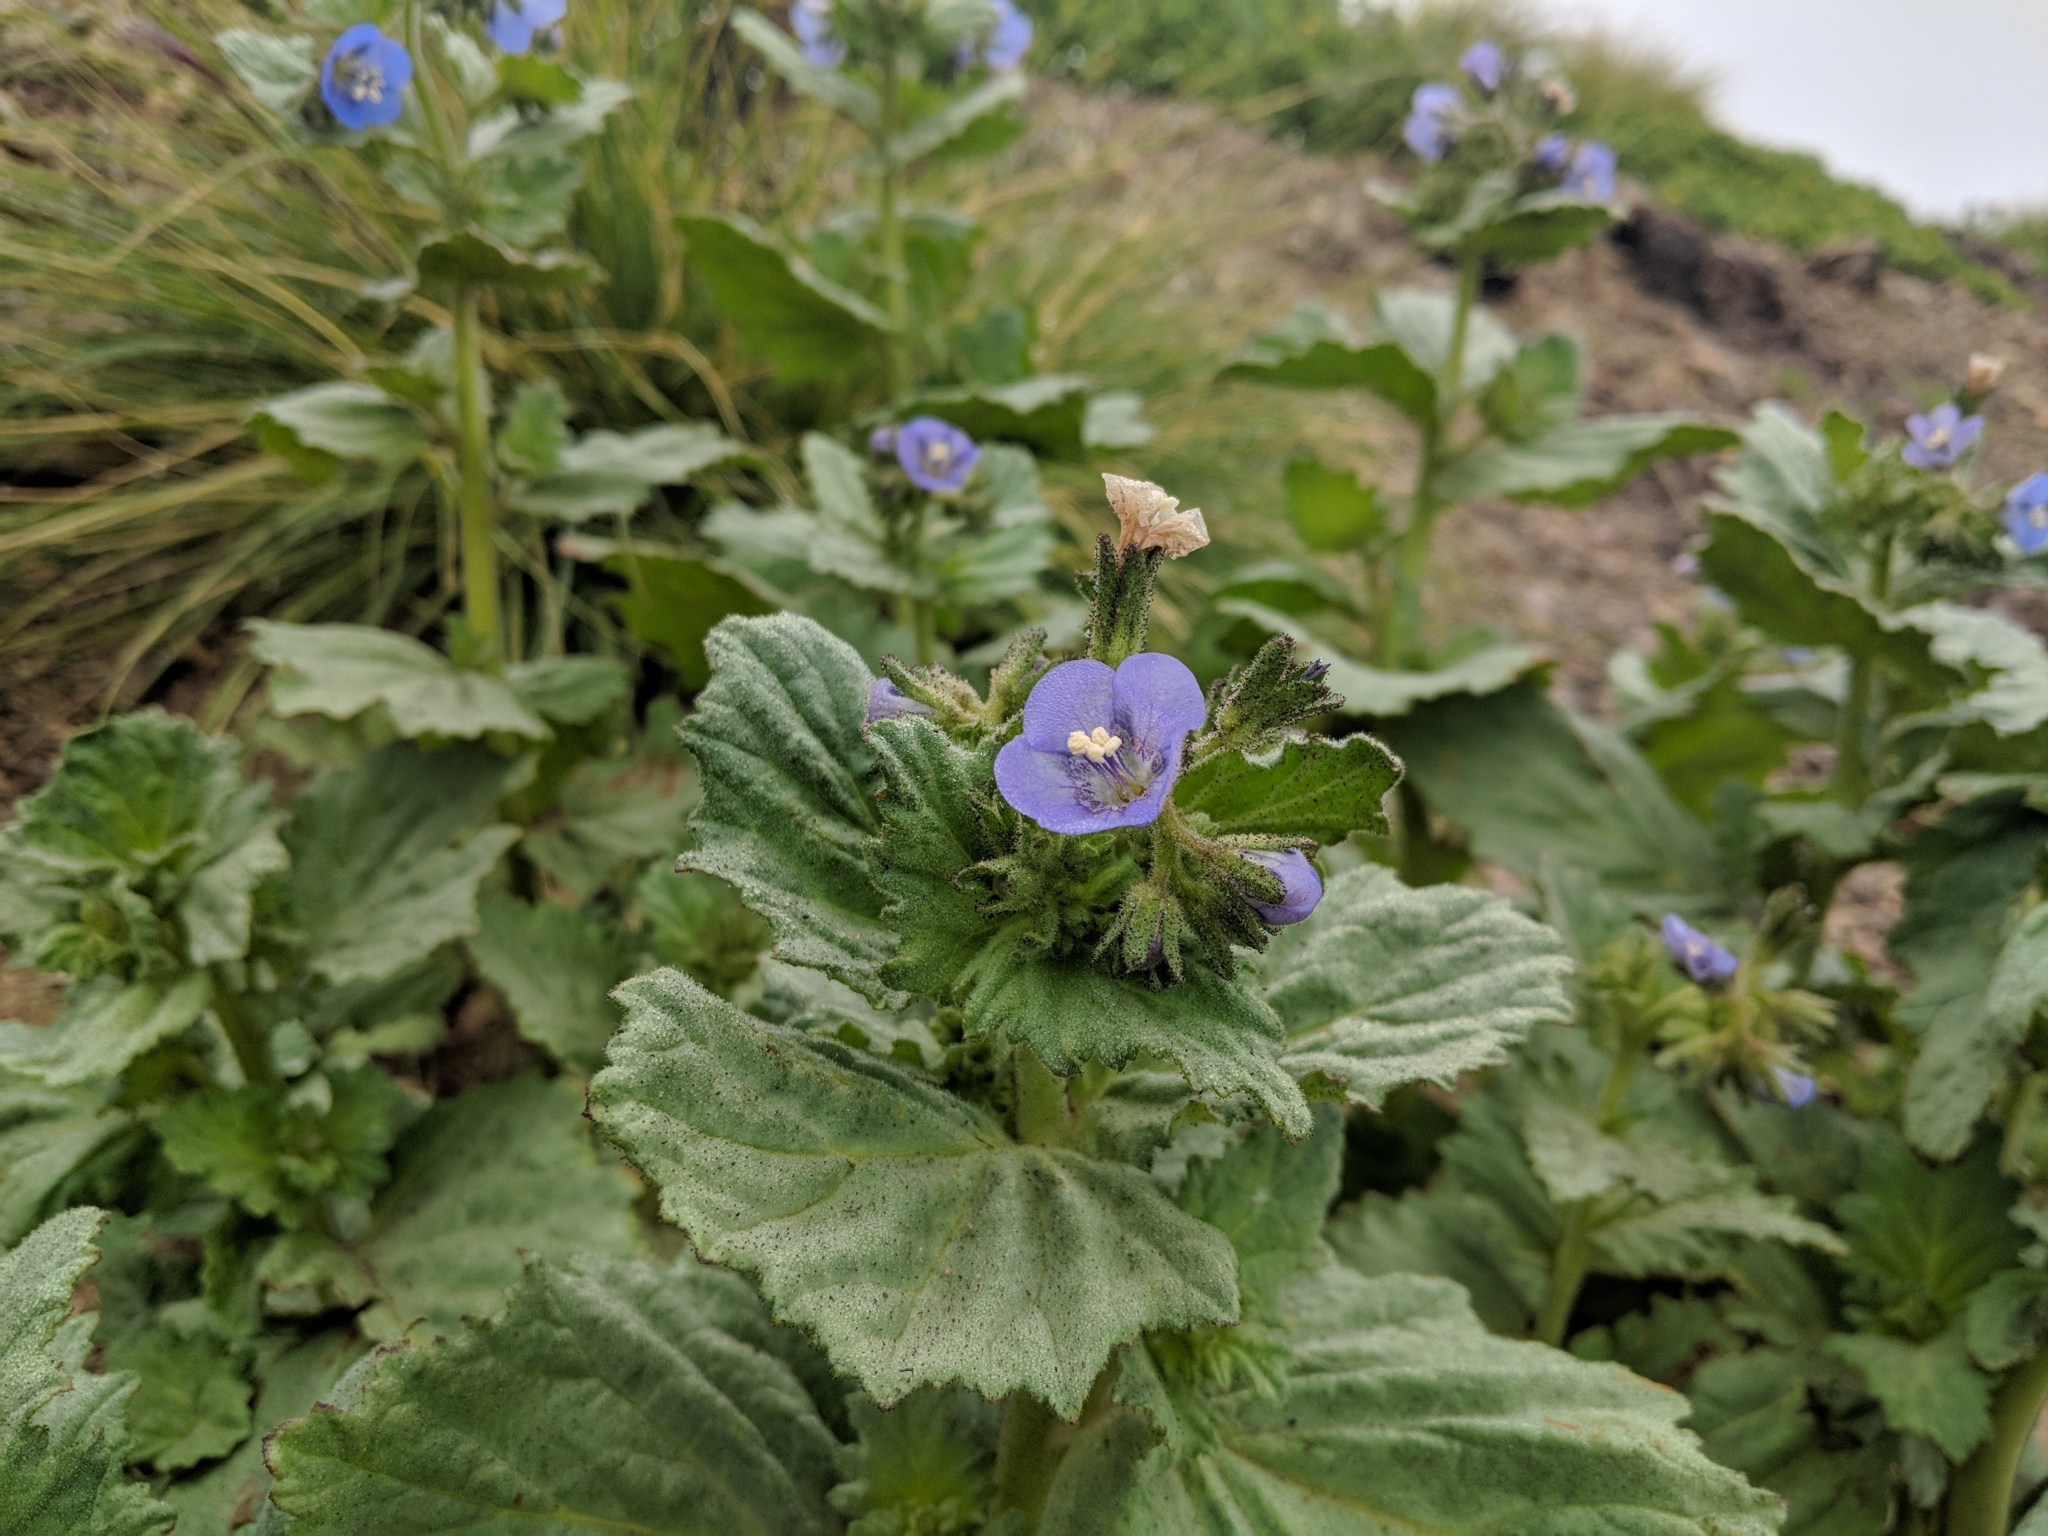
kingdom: Plantae
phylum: Tracheophyta
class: Magnoliopsida
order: Boraginales
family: Hydrophyllaceae
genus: Phacelia
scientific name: Phacelia viscida
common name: Sticky phacelia
